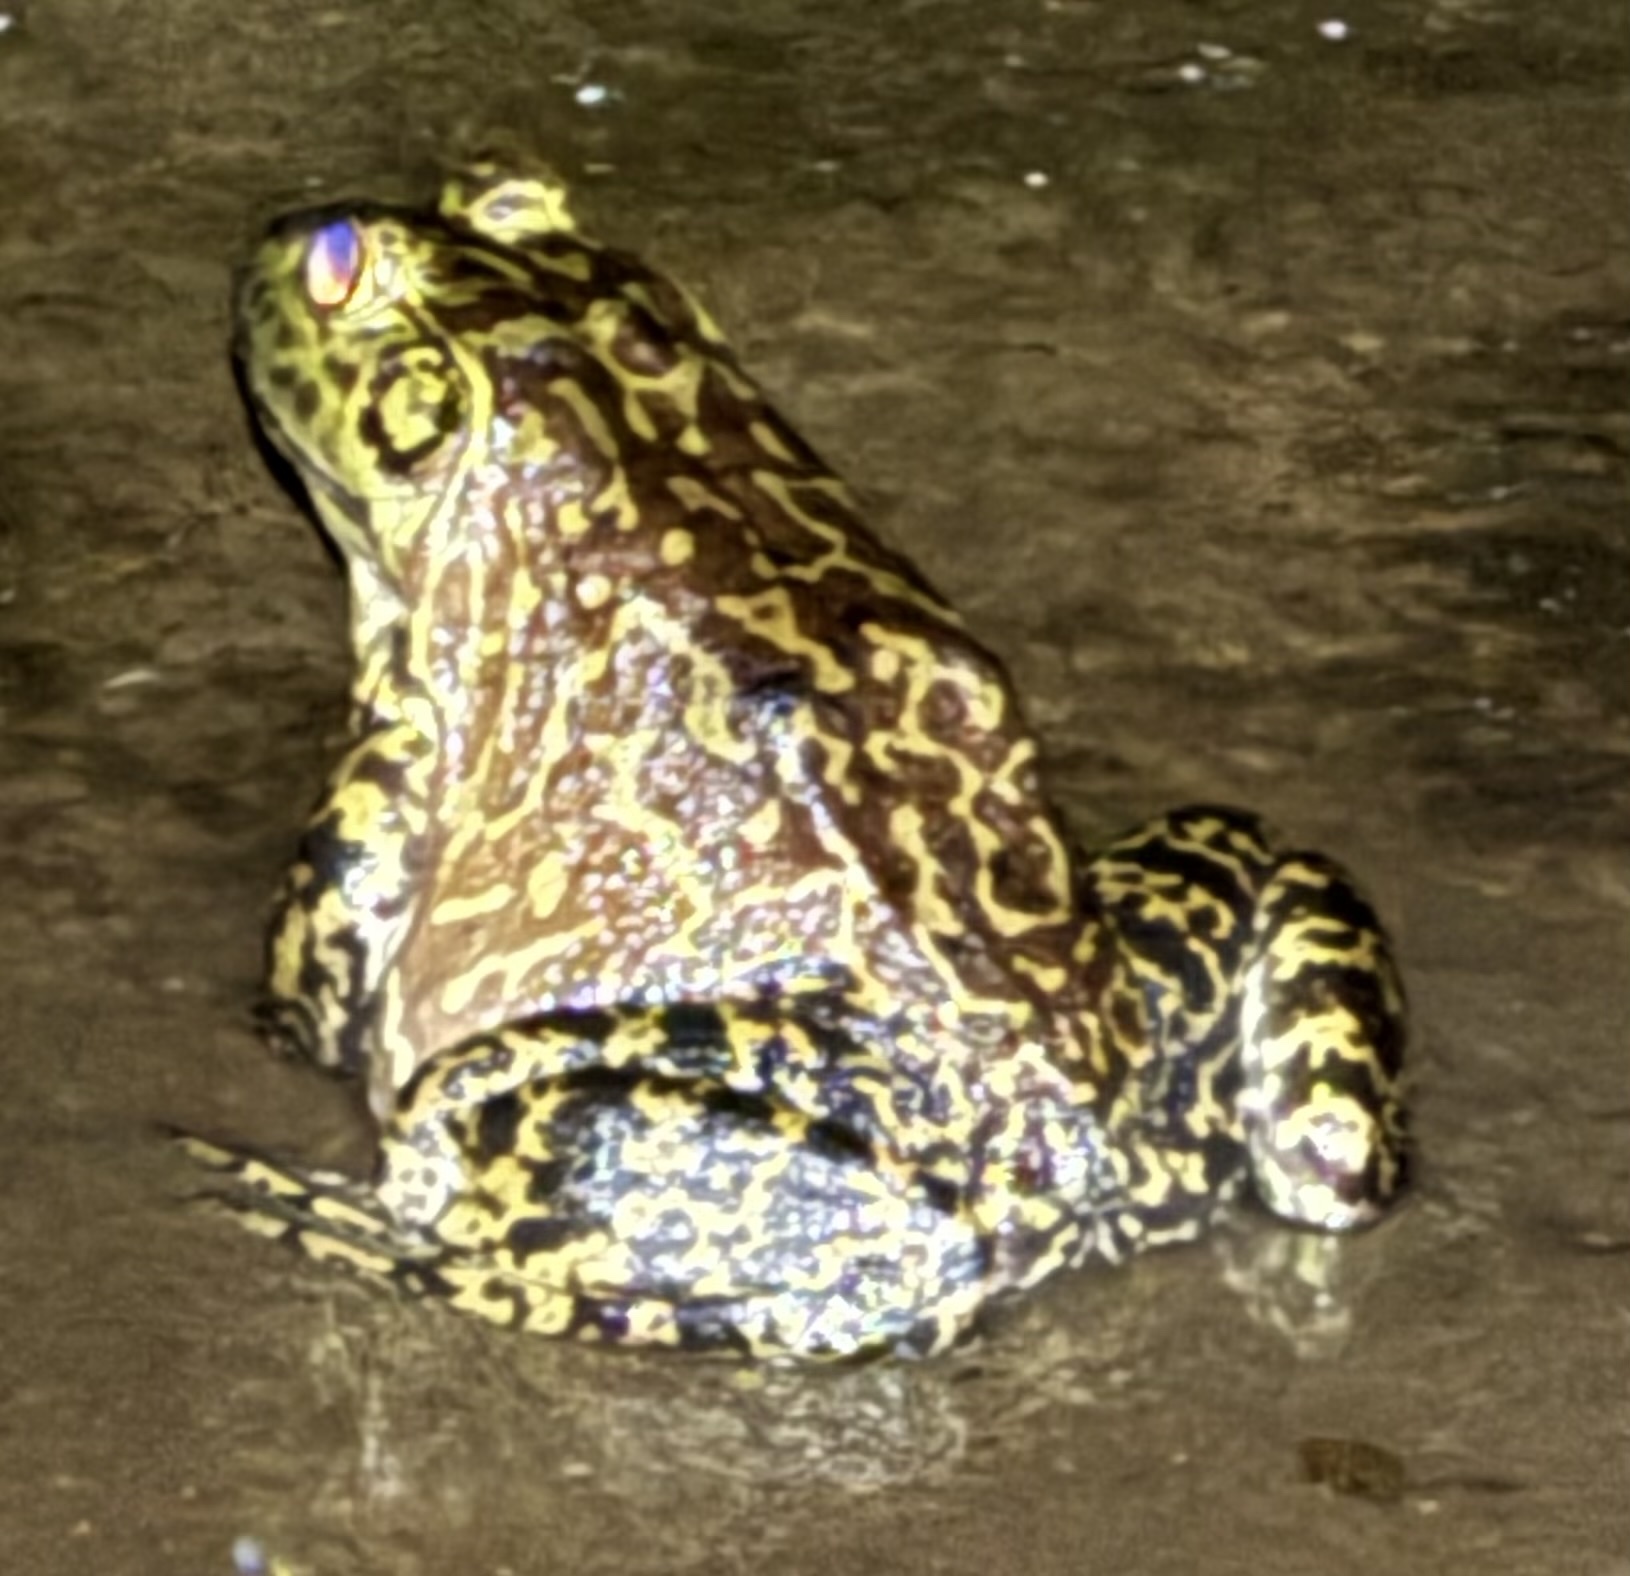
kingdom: Animalia
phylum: Chordata
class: Amphibia
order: Anura
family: Ranidae
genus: Lithobates
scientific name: Lithobates catesbeianus
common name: American bullfrog
